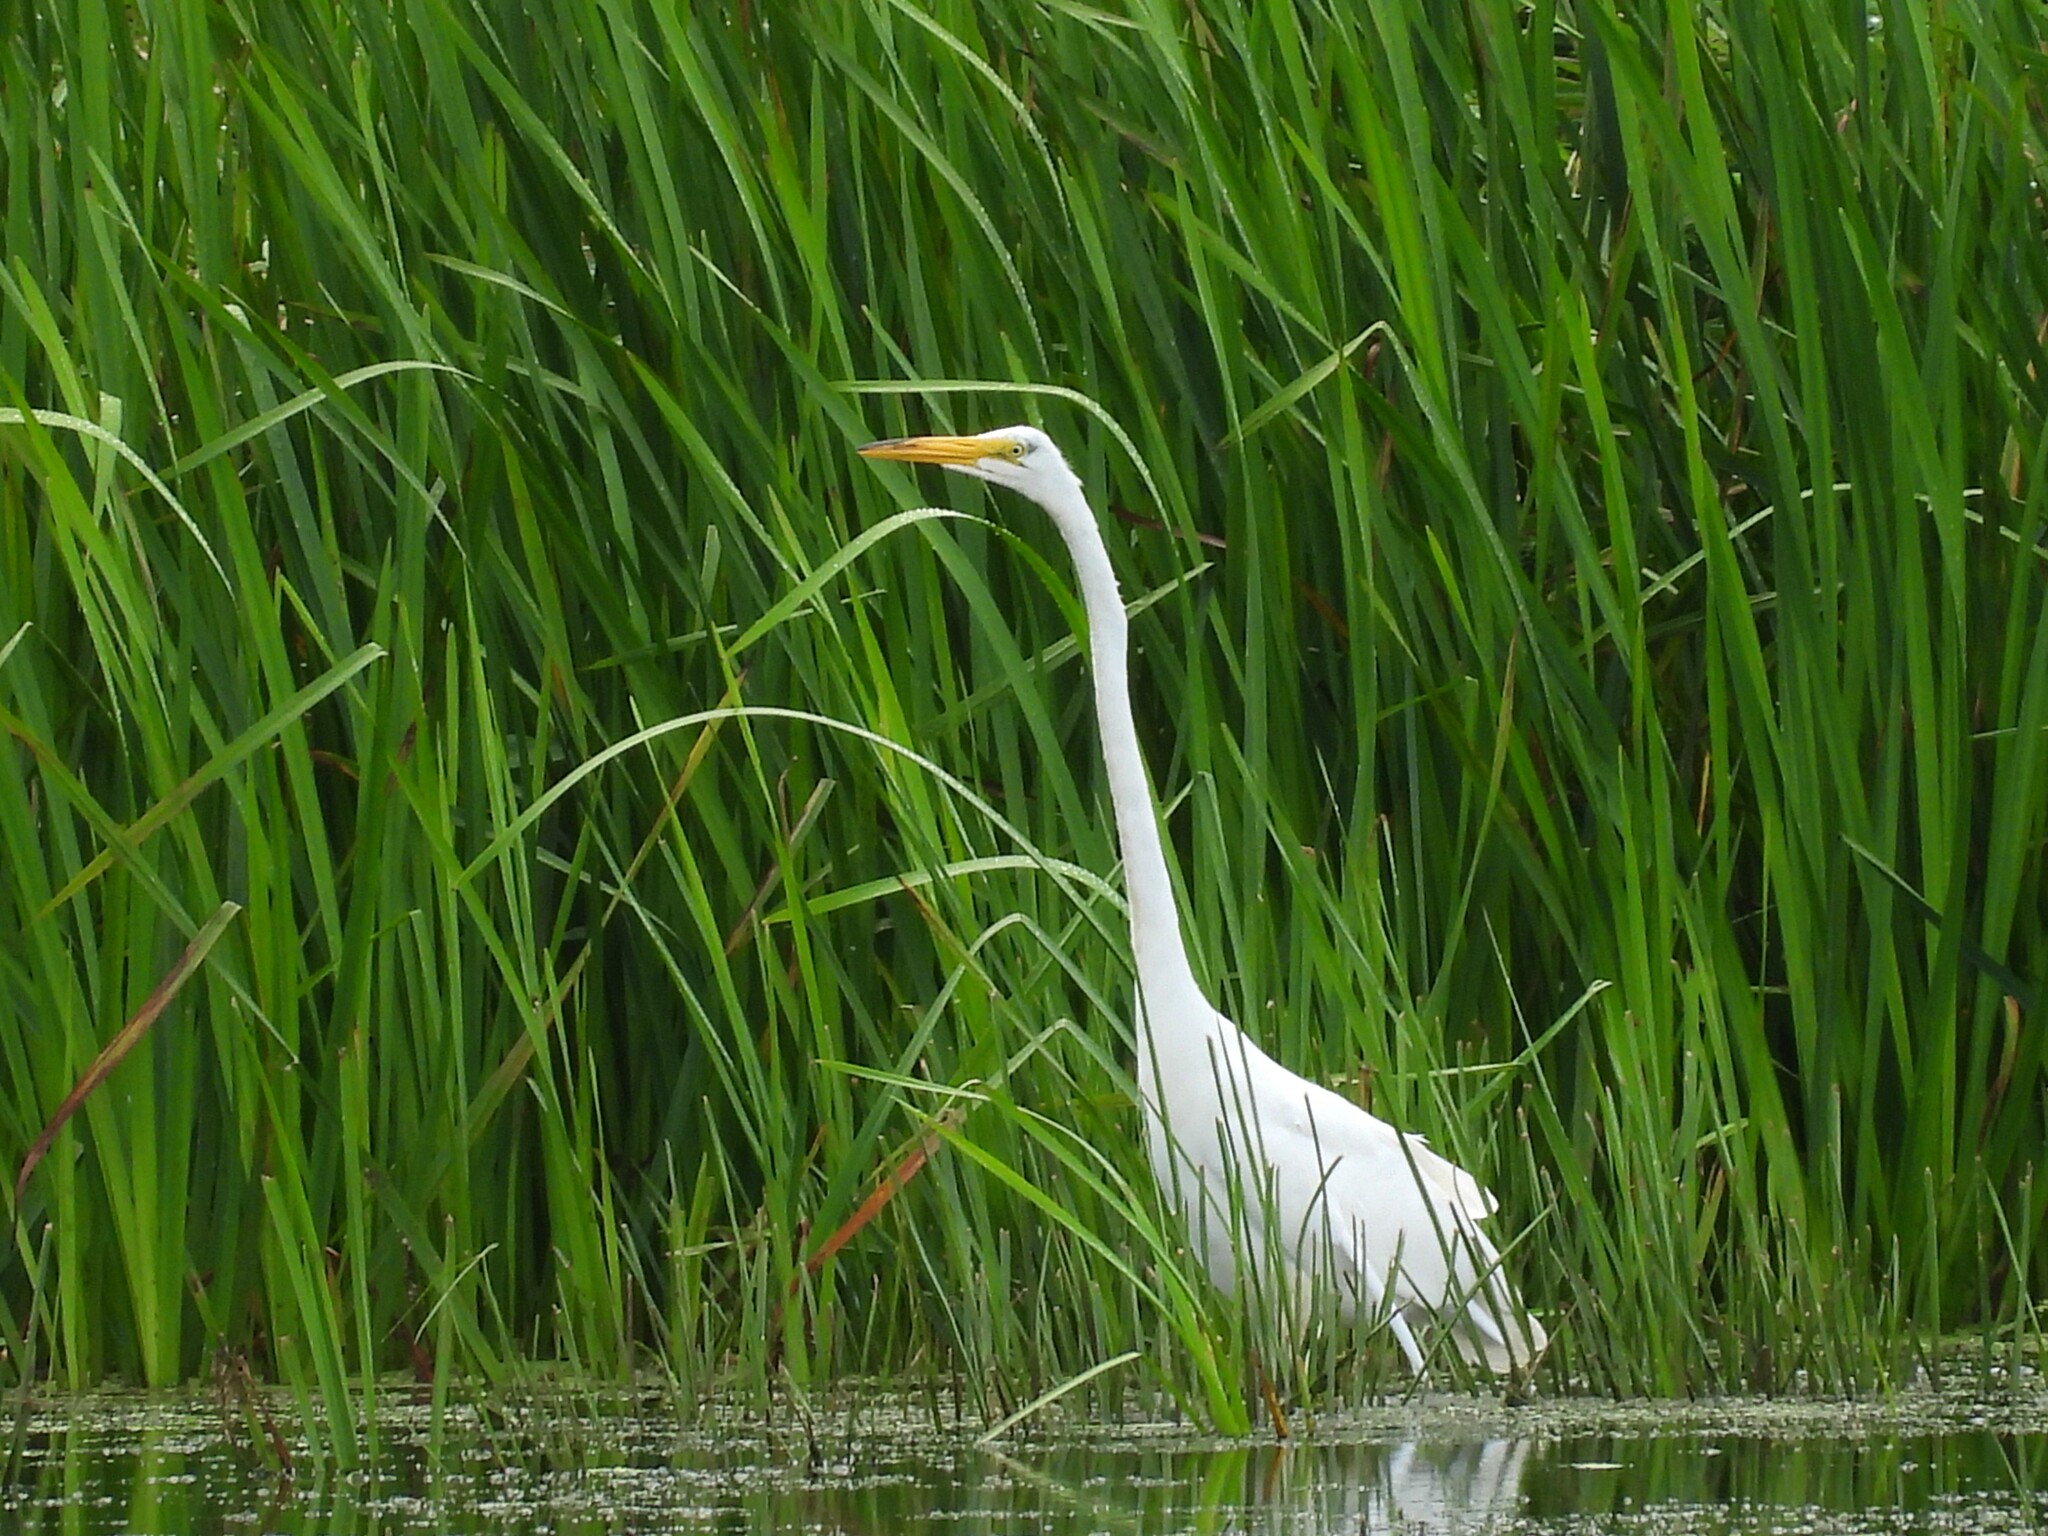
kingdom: Animalia
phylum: Chordata
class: Aves
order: Pelecaniformes
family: Ardeidae
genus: Ardea
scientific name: Ardea alba
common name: Great egret
